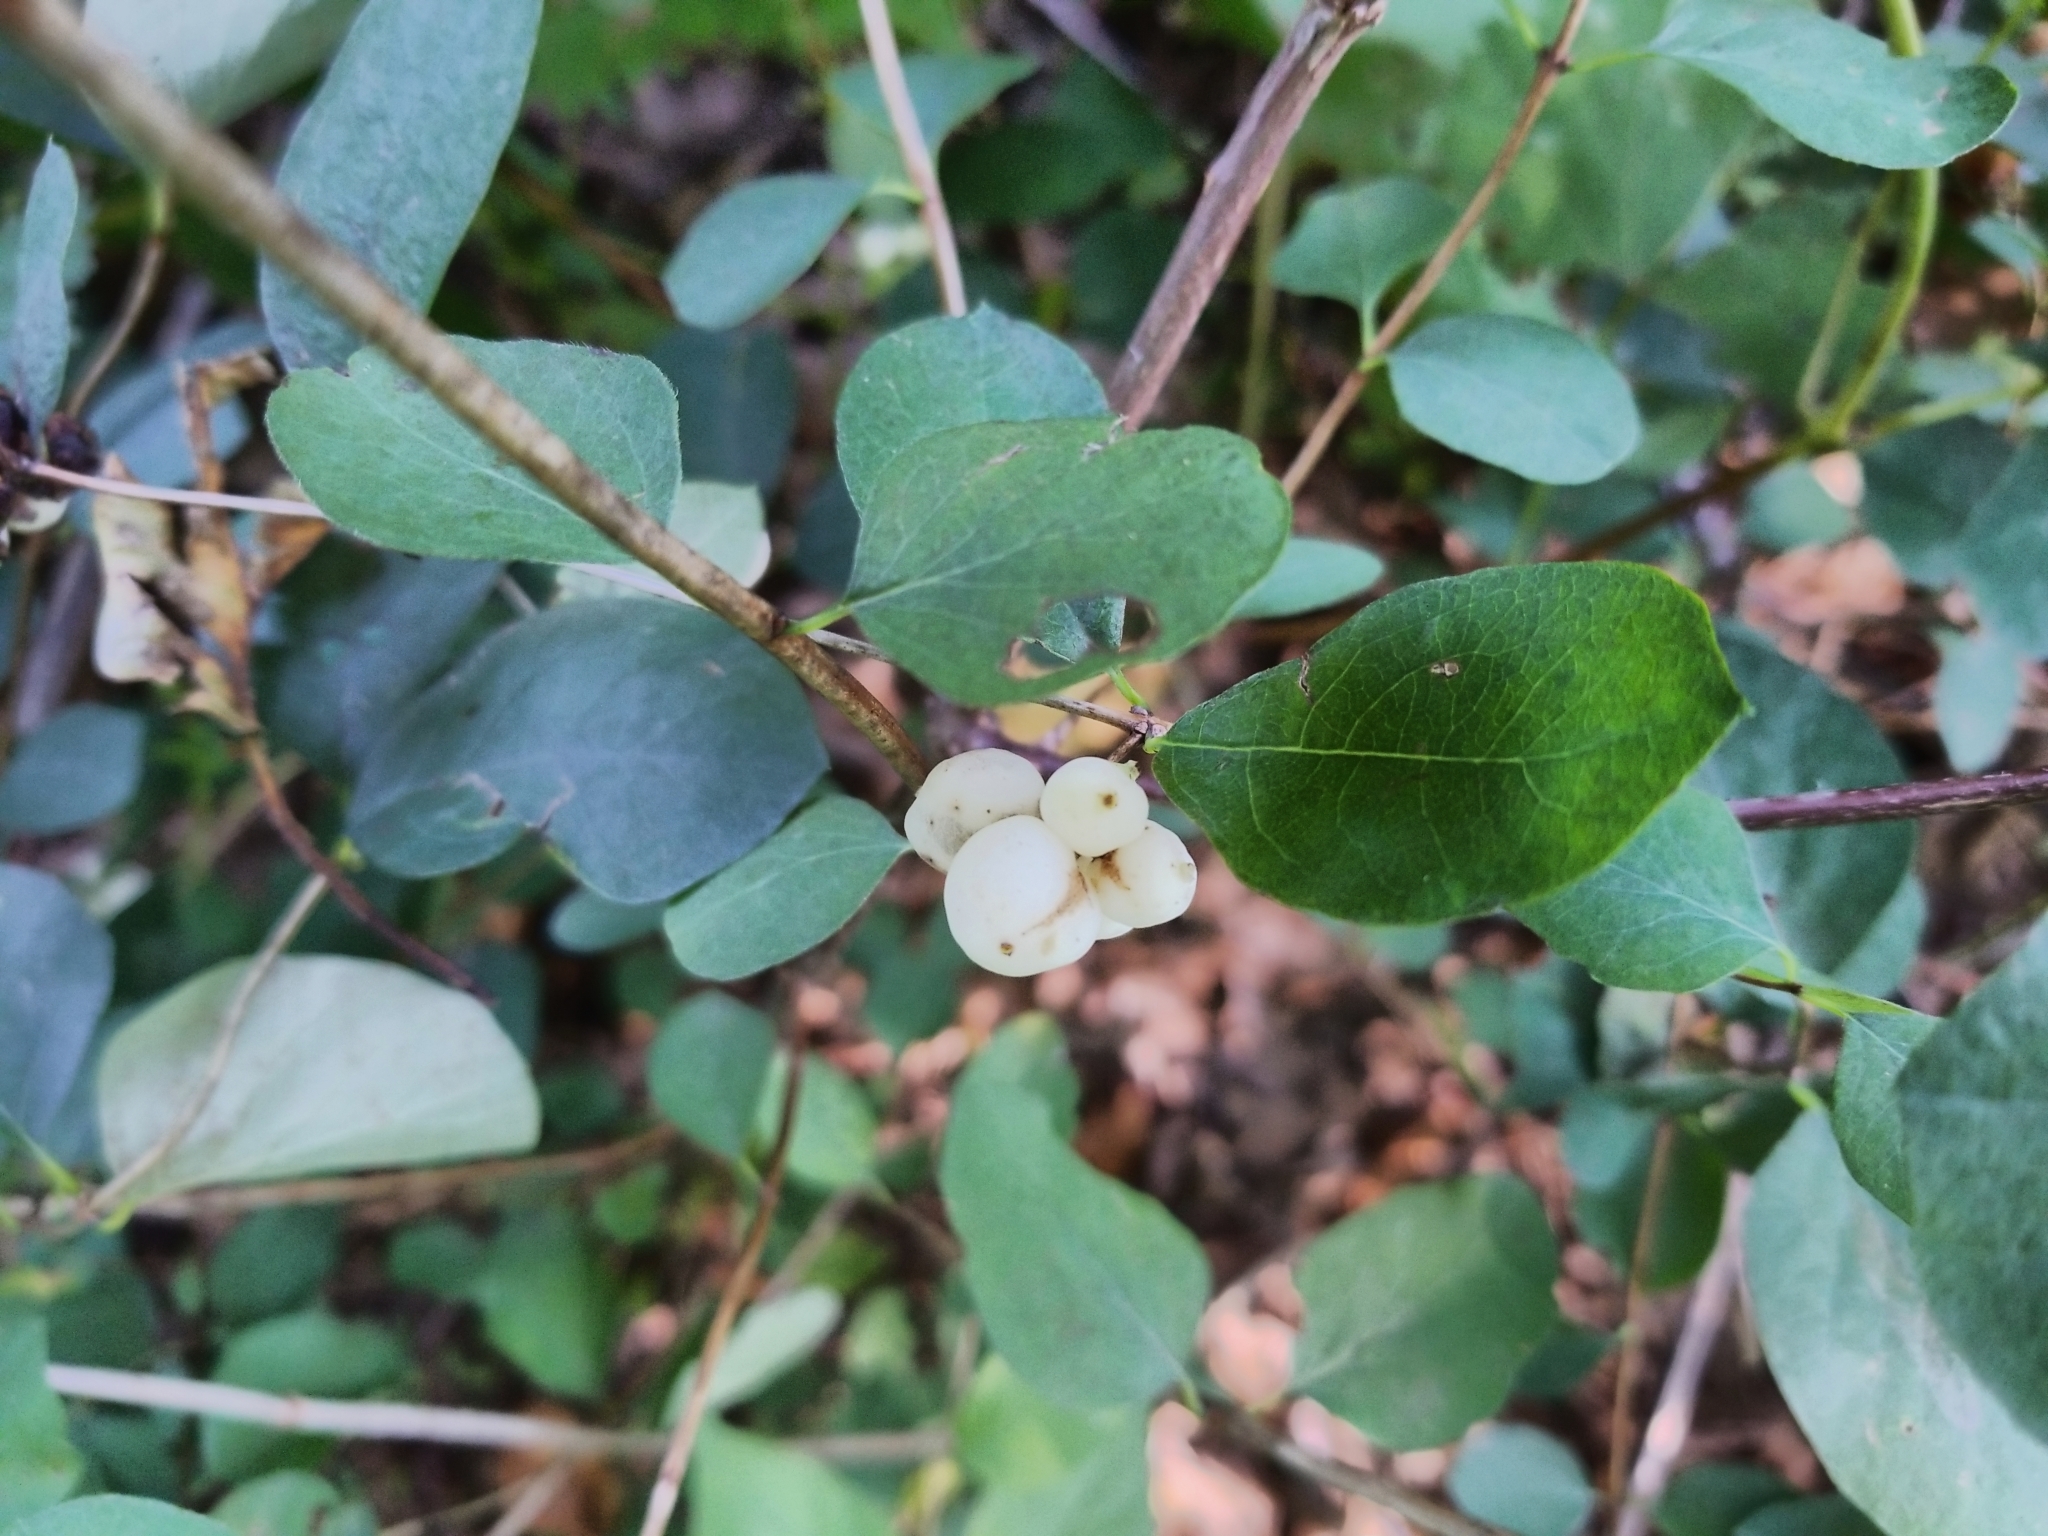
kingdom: Plantae
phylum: Tracheophyta
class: Magnoliopsida
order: Dipsacales
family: Caprifoliaceae
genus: Symphoricarpos
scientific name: Symphoricarpos albus
